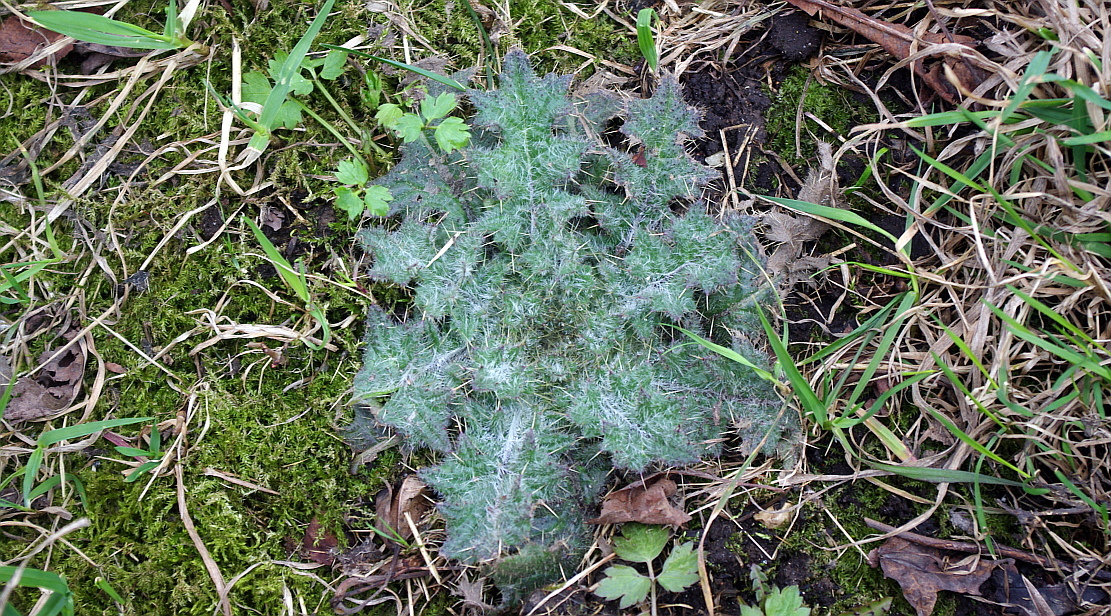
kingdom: Plantae
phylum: Tracheophyta
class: Magnoliopsida
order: Asterales
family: Asteraceae
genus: Cirsium
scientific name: Cirsium vulgare
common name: Bull thistle
